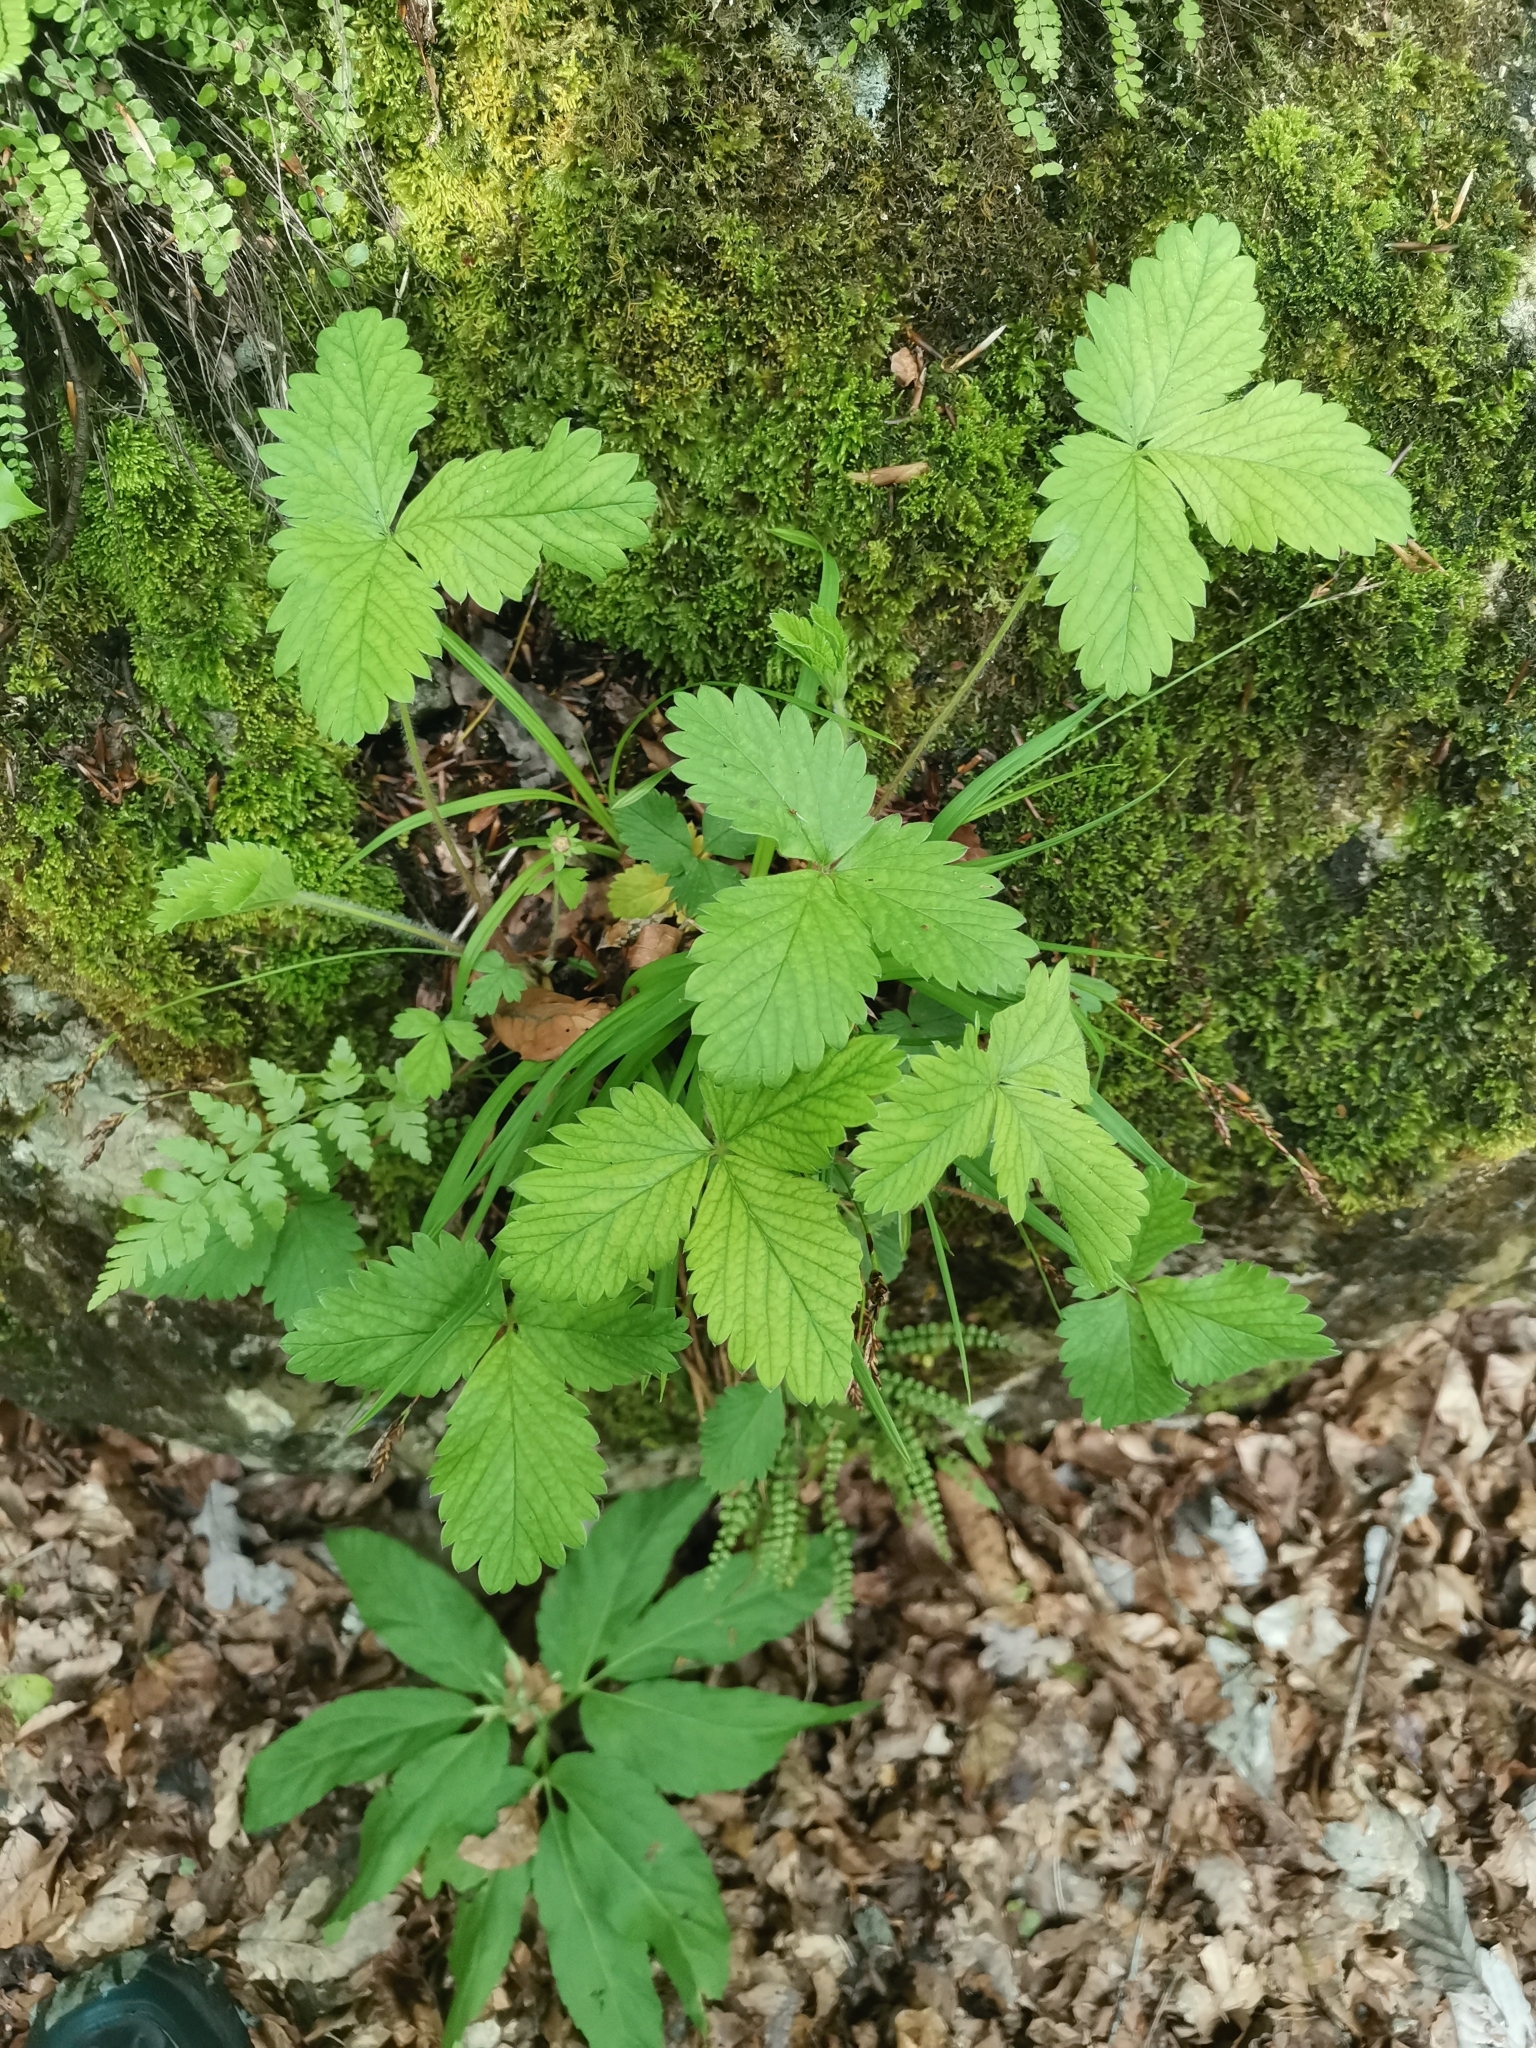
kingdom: Plantae
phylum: Tracheophyta
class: Magnoliopsida
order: Rosales
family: Rosaceae
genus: Potentilla
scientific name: Potentilla micrantha
